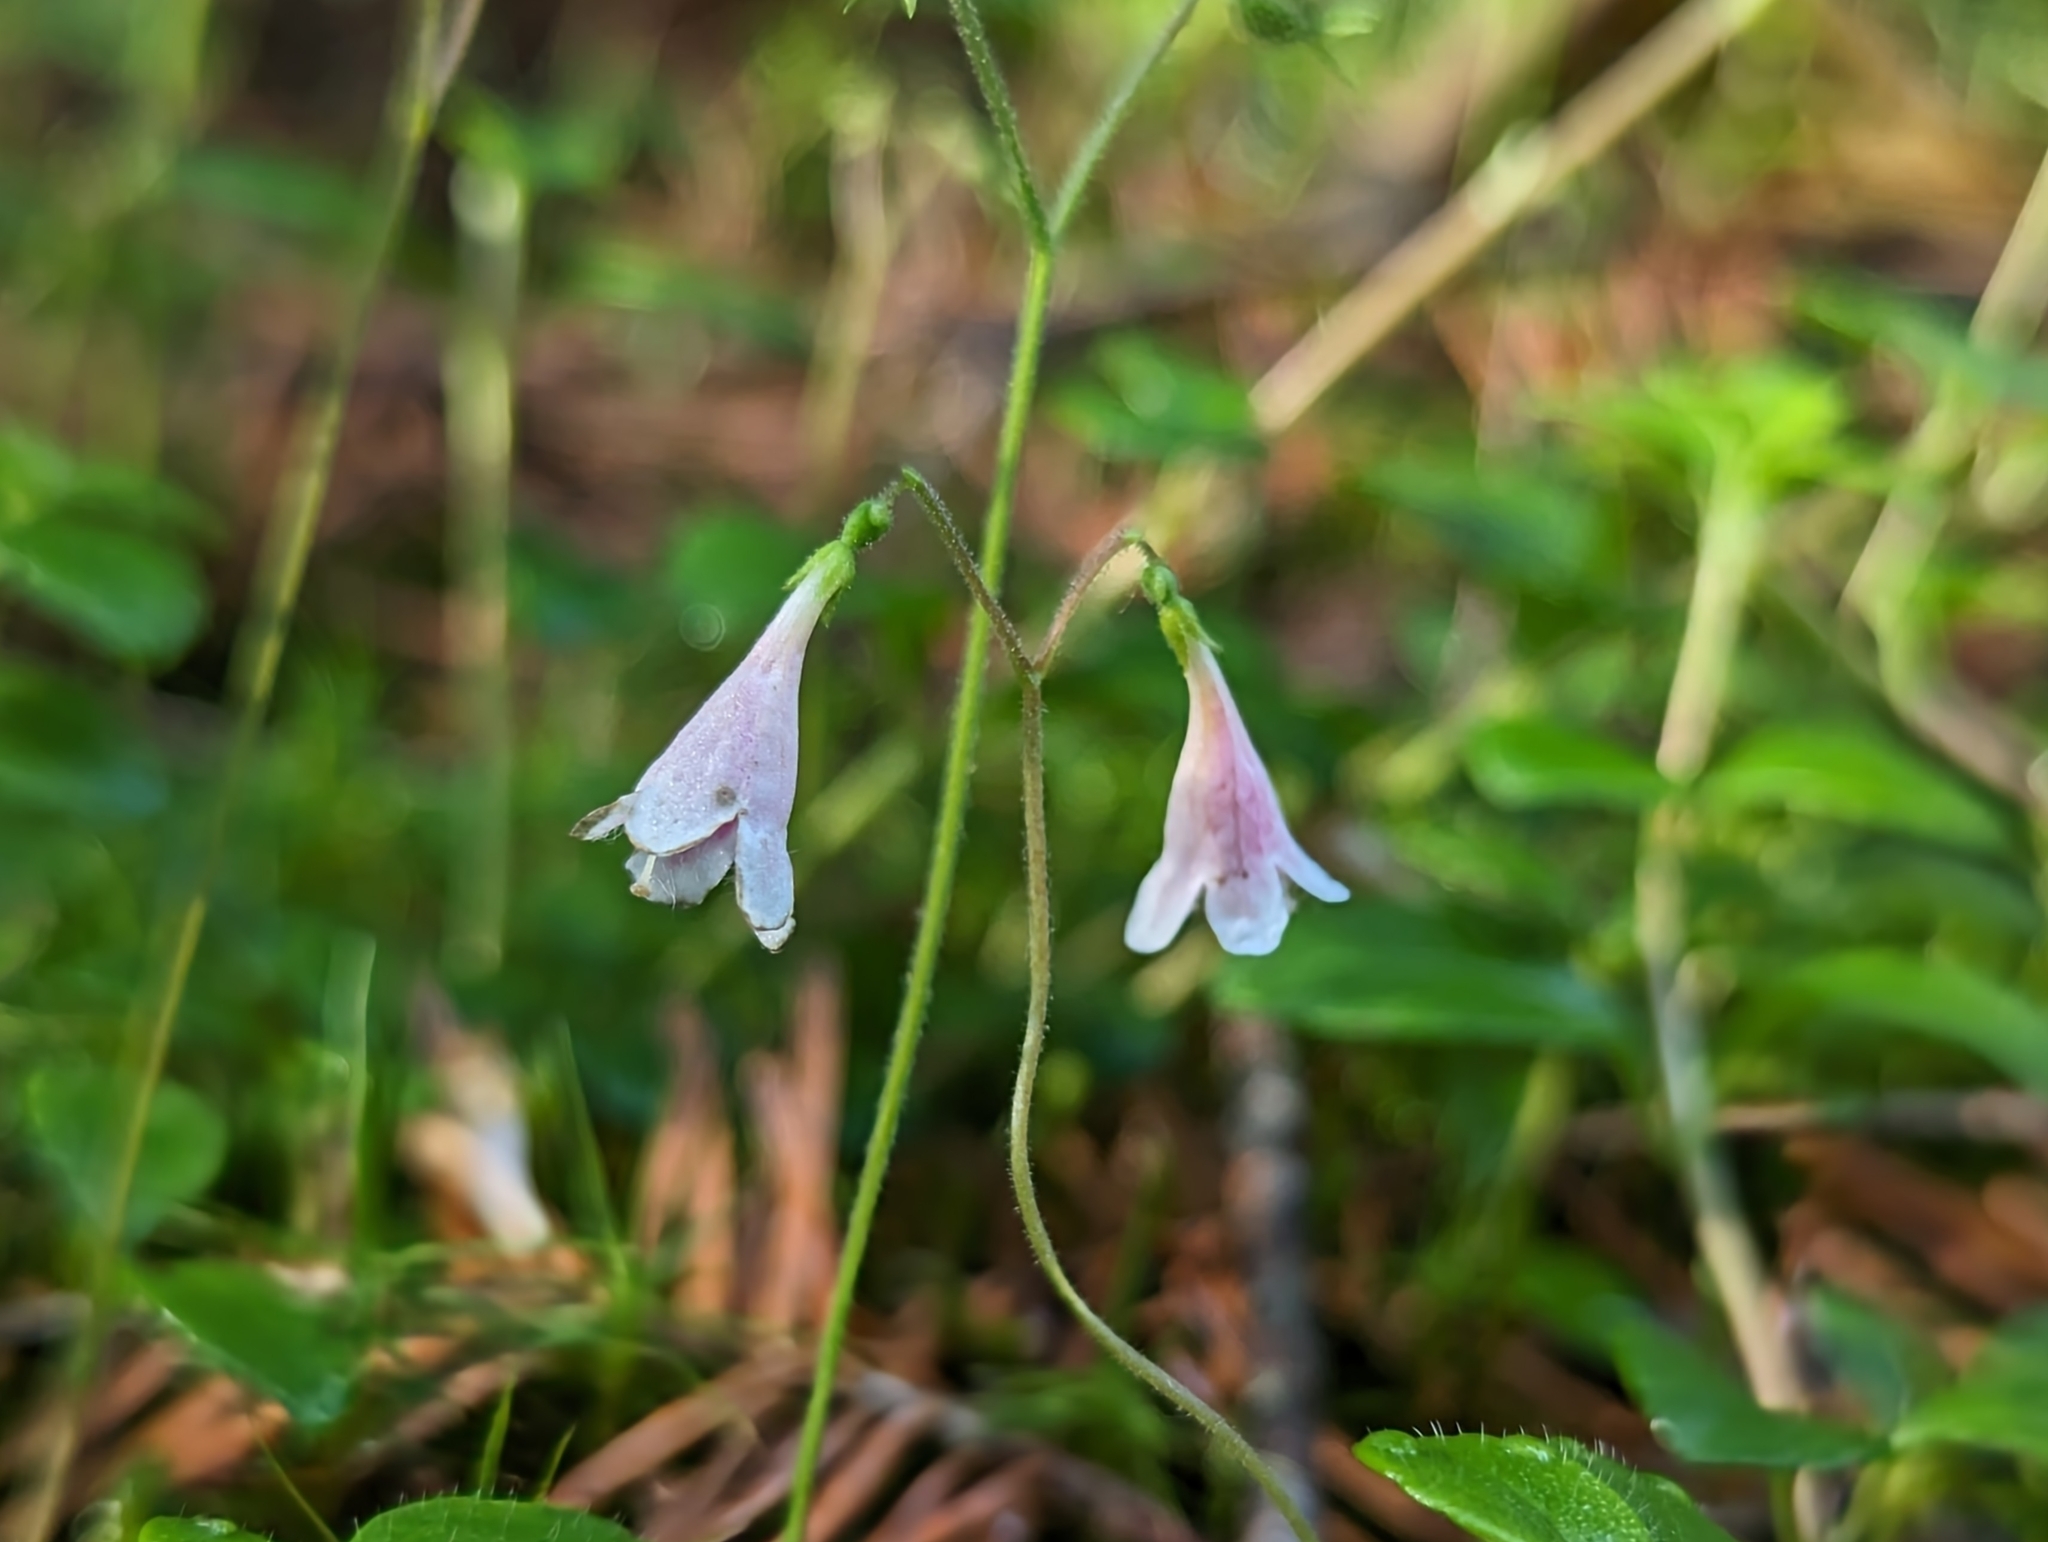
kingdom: Plantae
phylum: Tracheophyta
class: Magnoliopsida
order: Dipsacales
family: Caprifoliaceae
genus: Linnaea
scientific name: Linnaea borealis
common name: Twinflower
